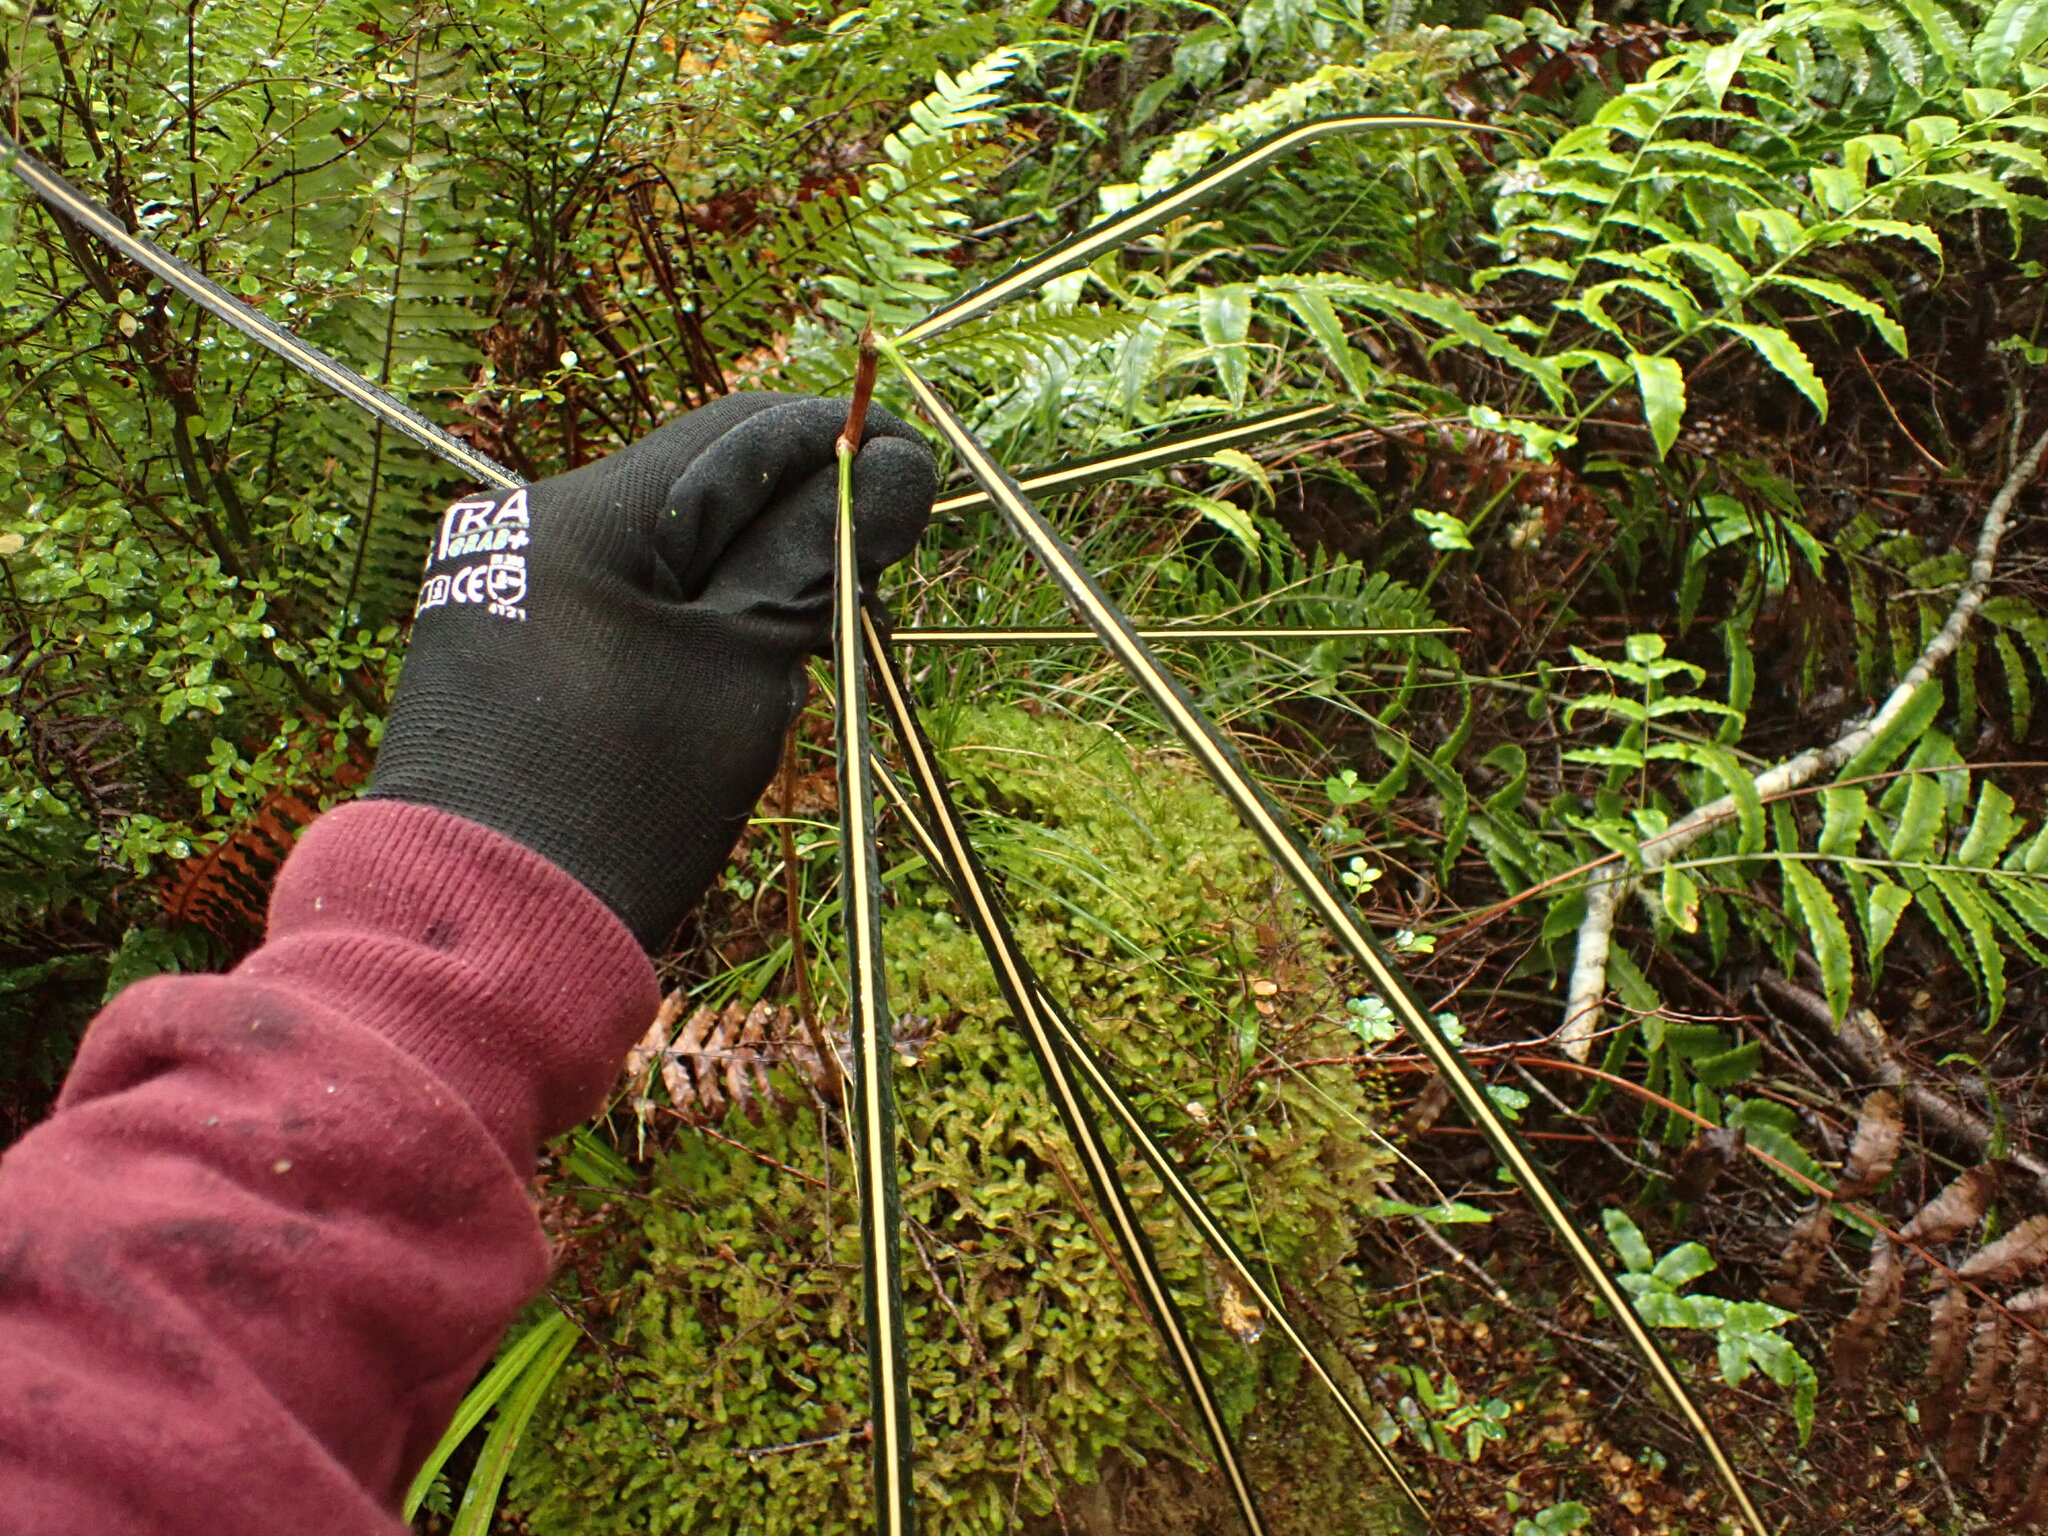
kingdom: Plantae
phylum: Tracheophyta
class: Magnoliopsida
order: Apiales
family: Araliaceae
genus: Pseudopanax
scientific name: Pseudopanax crassifolius
